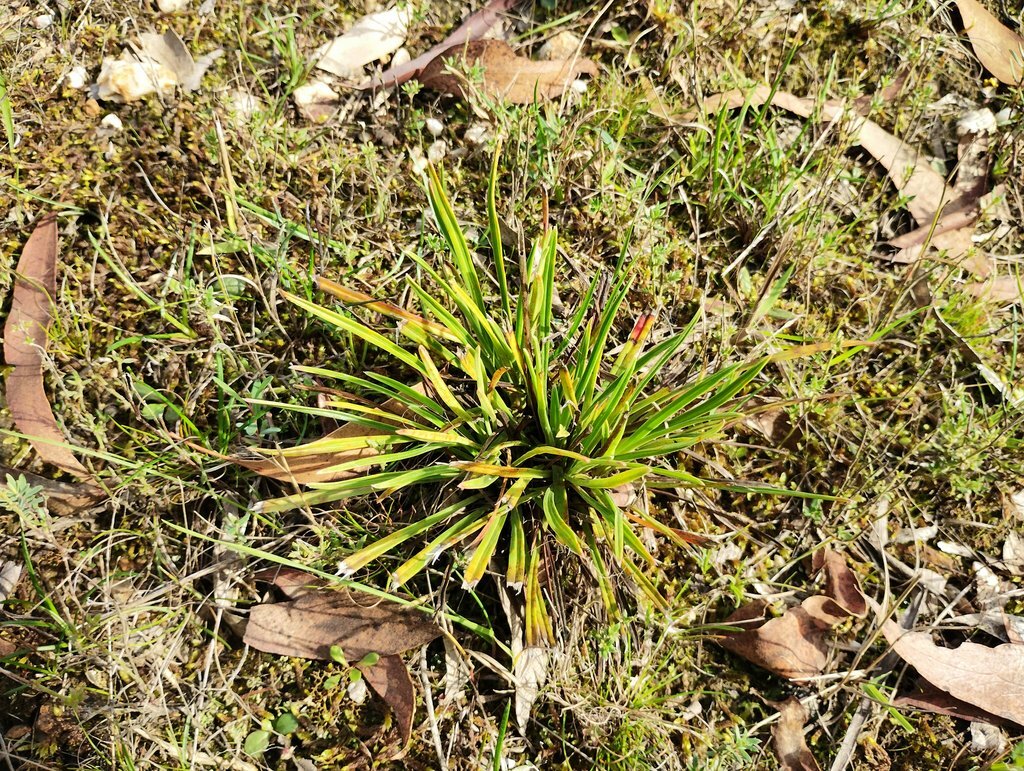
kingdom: Plantae
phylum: Tracheophyta
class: Magnoliopsida
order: Asterales
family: Stylidiaceae
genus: Stylidium
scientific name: Stylidium armeria
